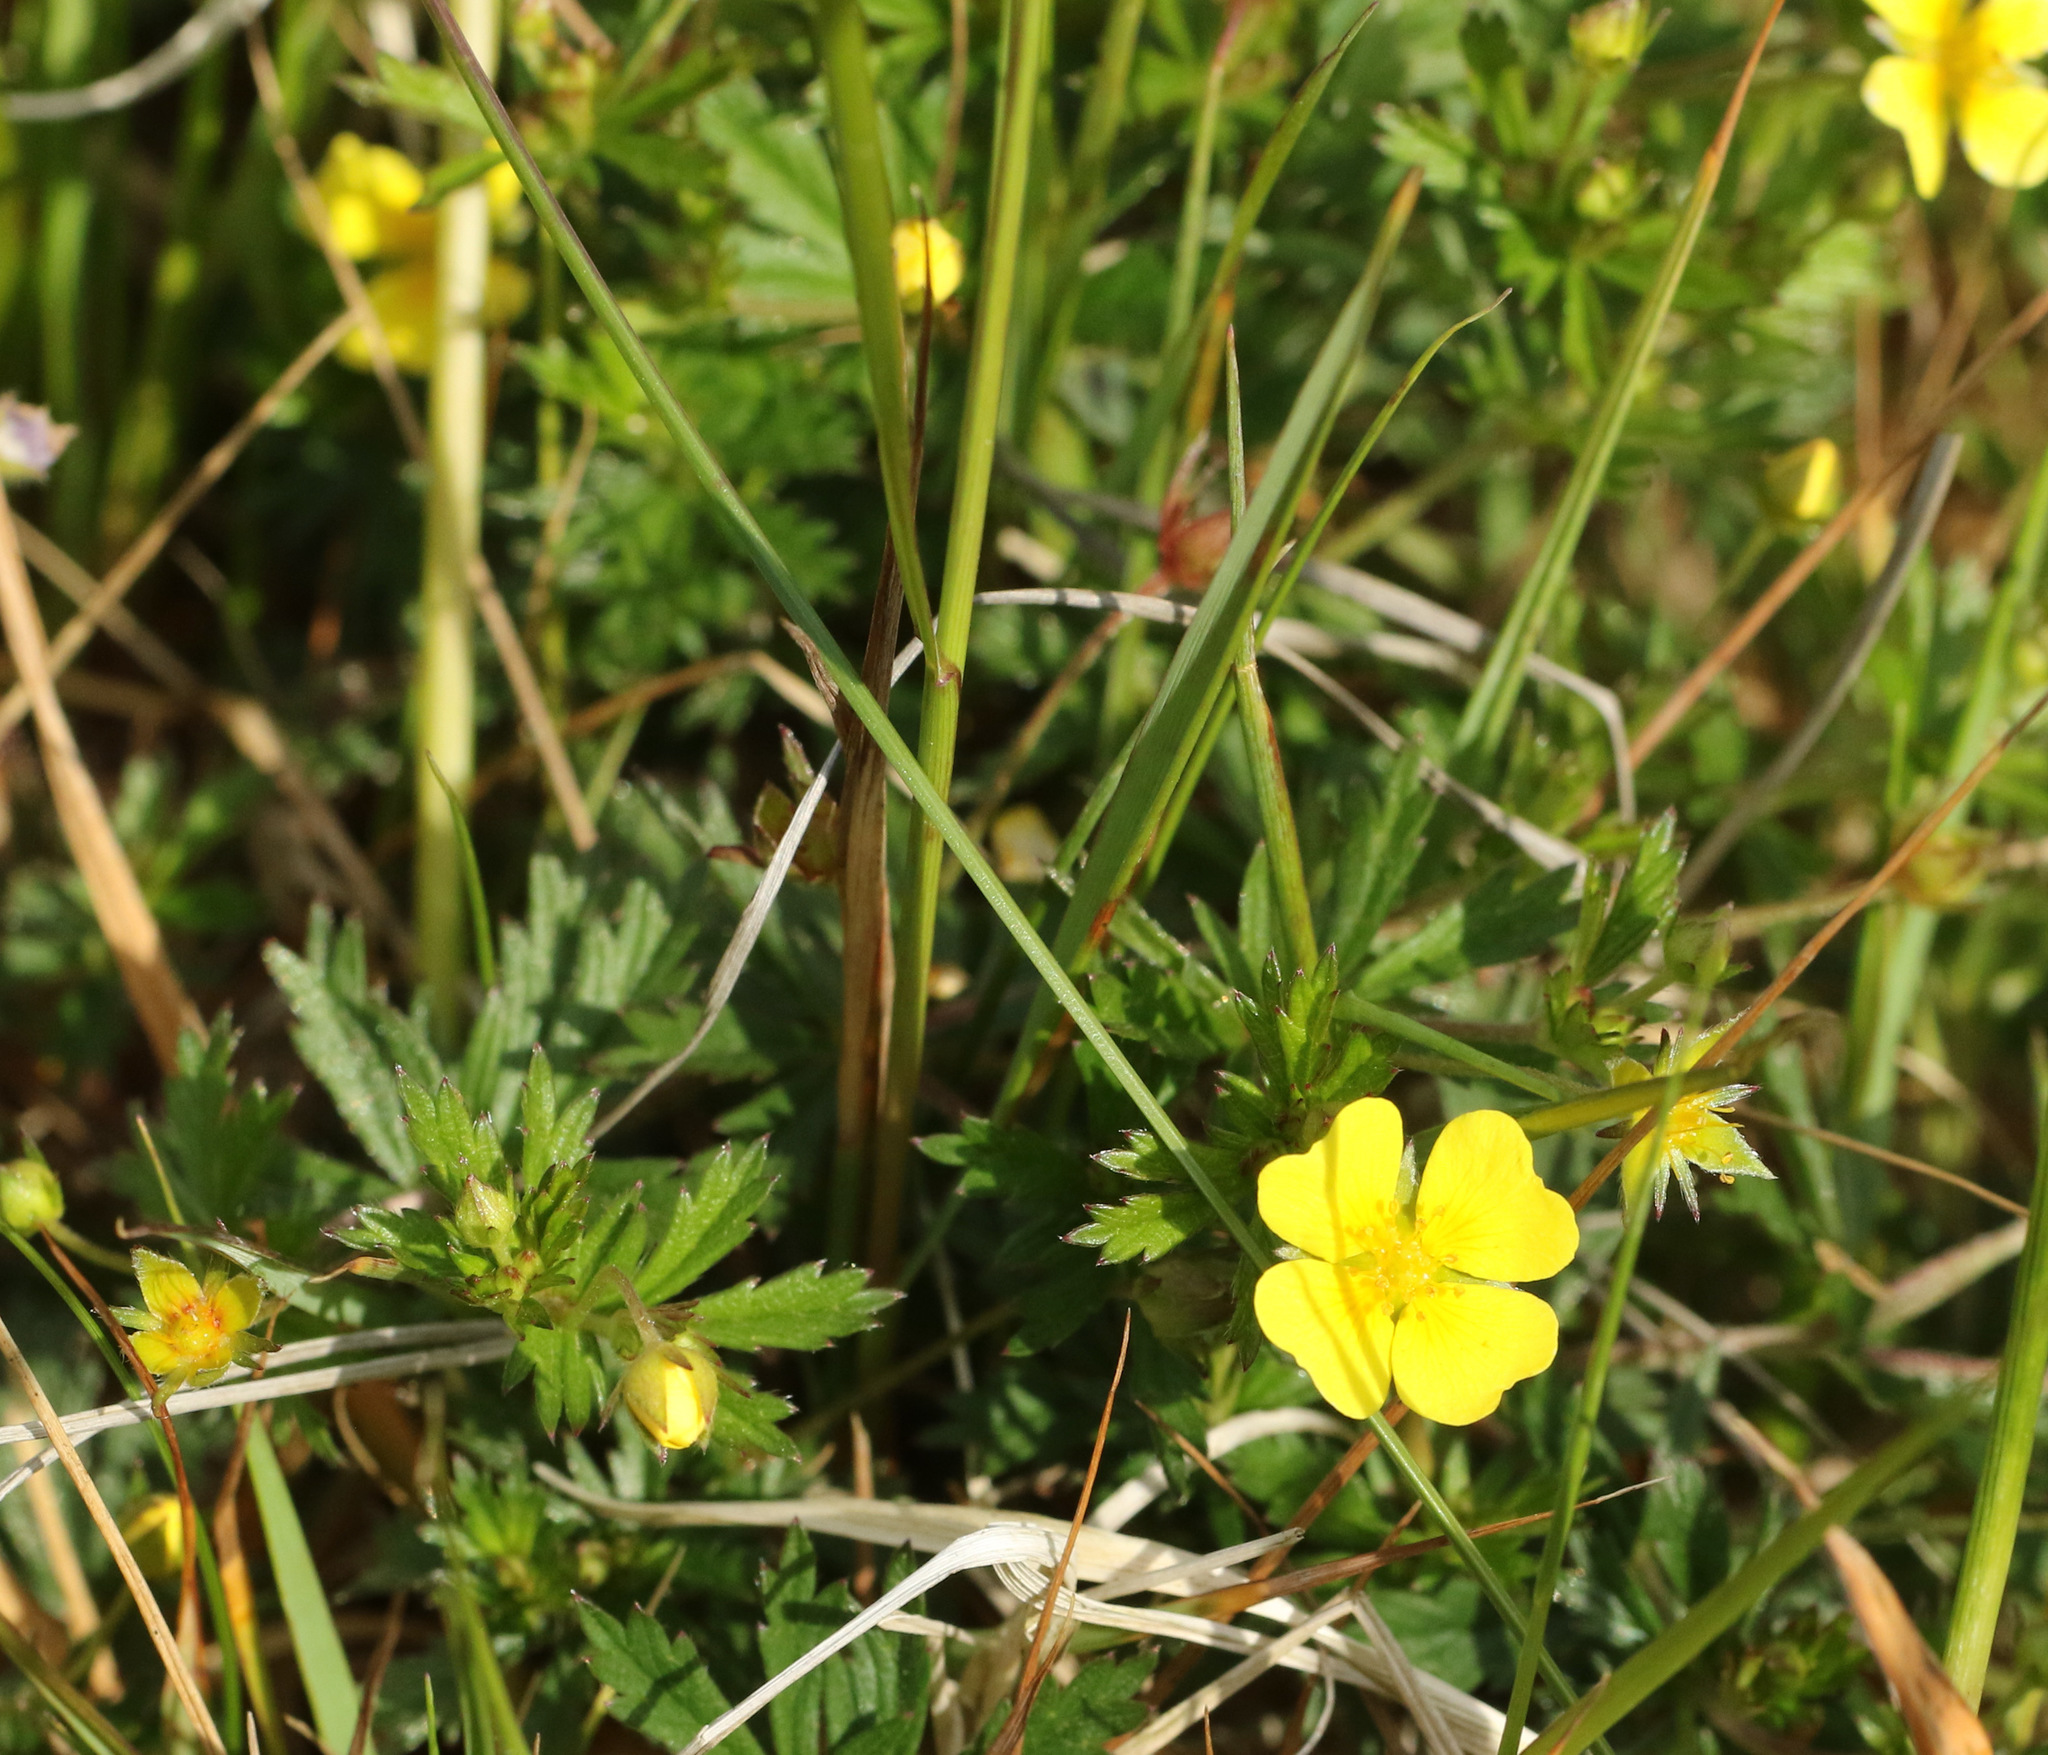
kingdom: Plantae
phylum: Tracheophyta
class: Magnoliopsida
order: Rosales
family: Rosaceae
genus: Potentilla
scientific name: Potentilla erecta
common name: Tormentil
